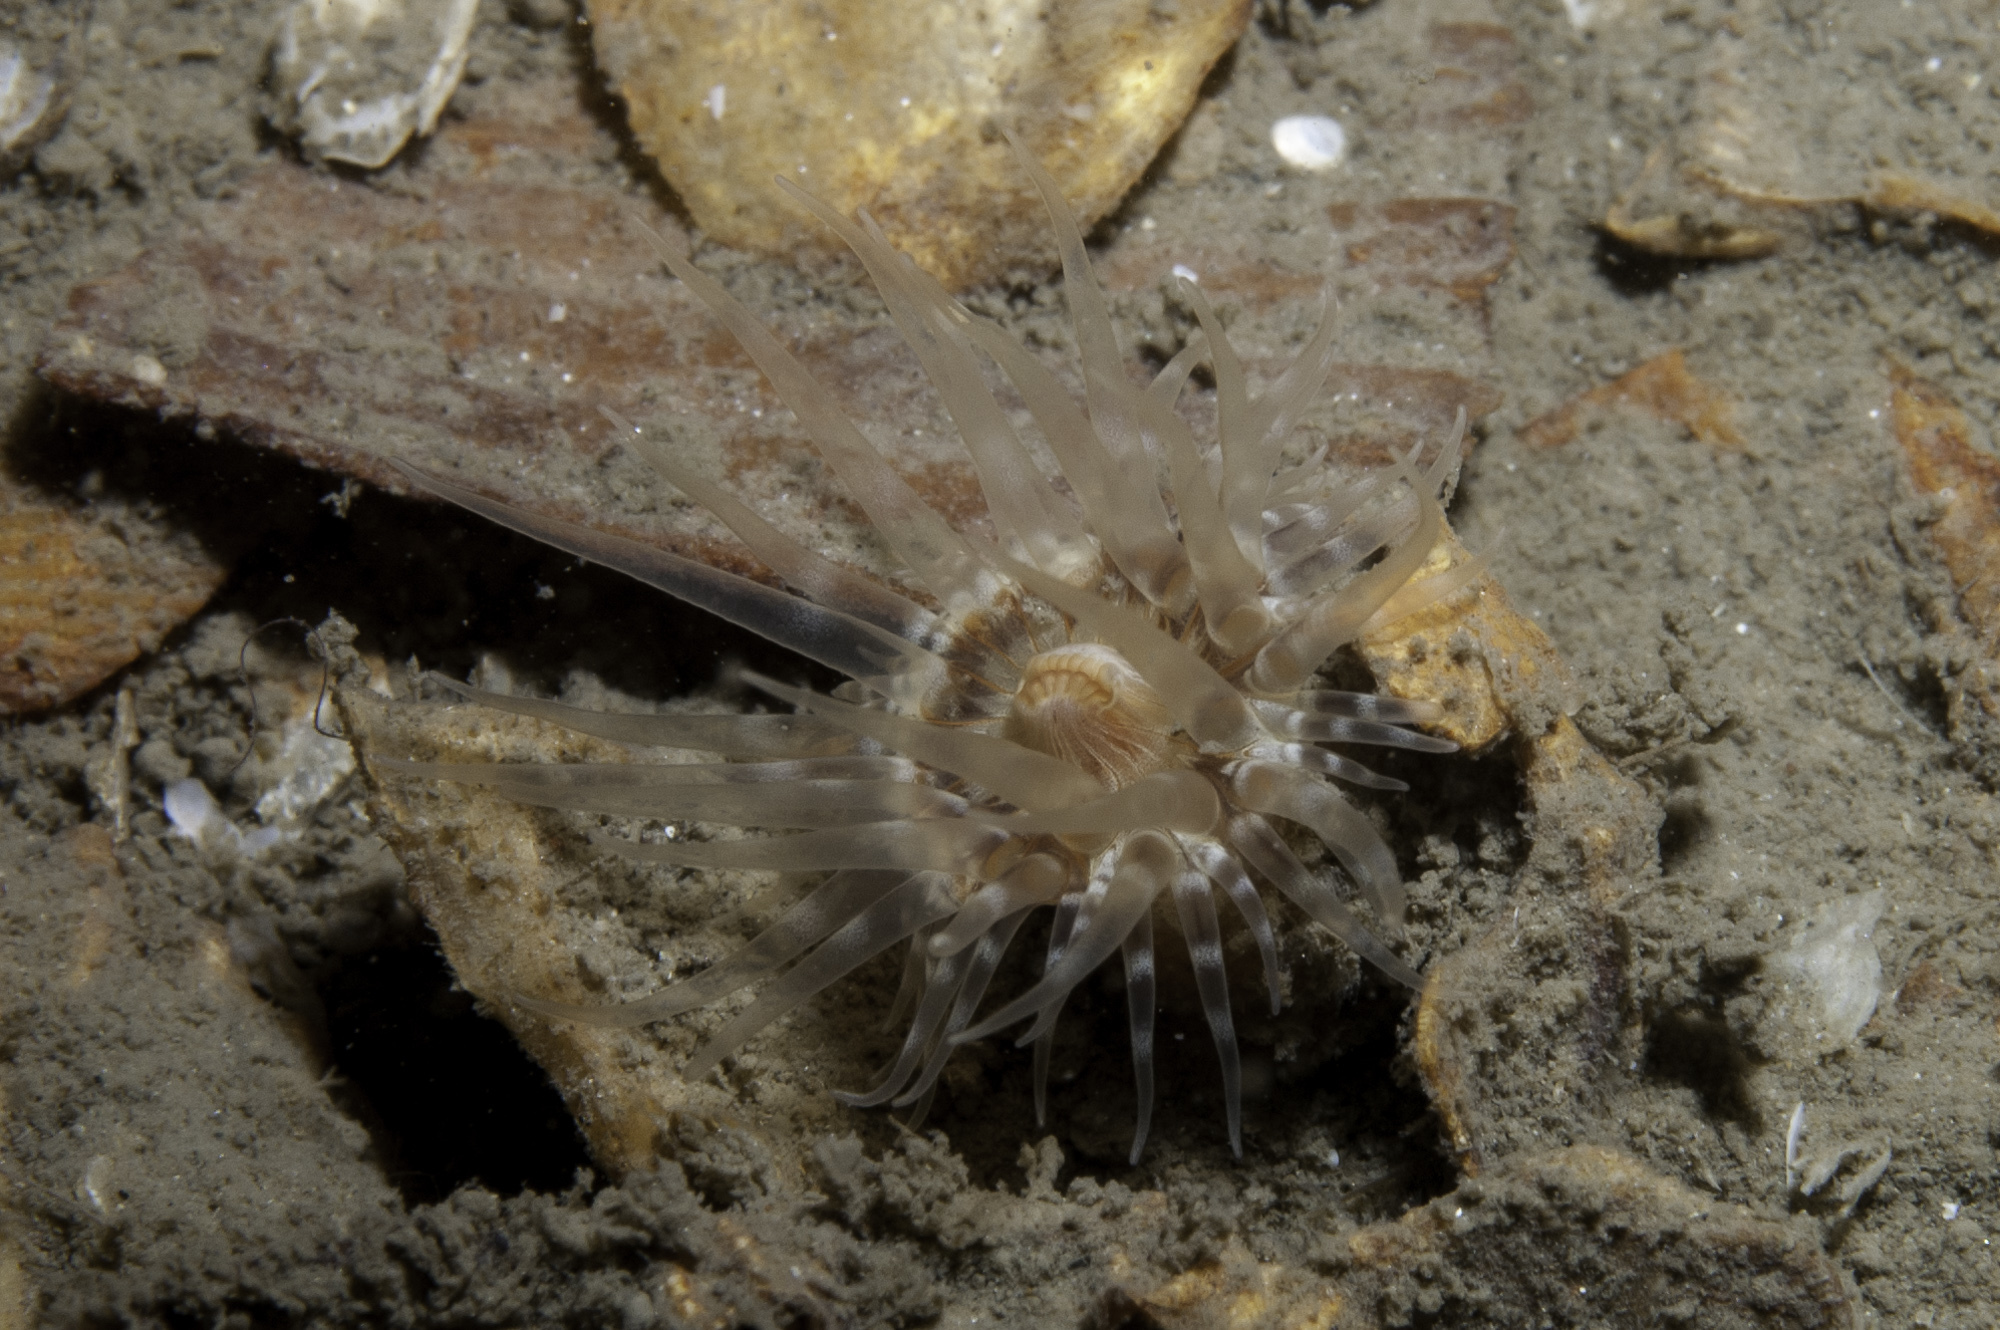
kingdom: Animalia
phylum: Cnidaria
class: Anthozoa
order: Actiniaria
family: Sagartiidae
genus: Sagartia
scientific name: Sagartia lacerata
